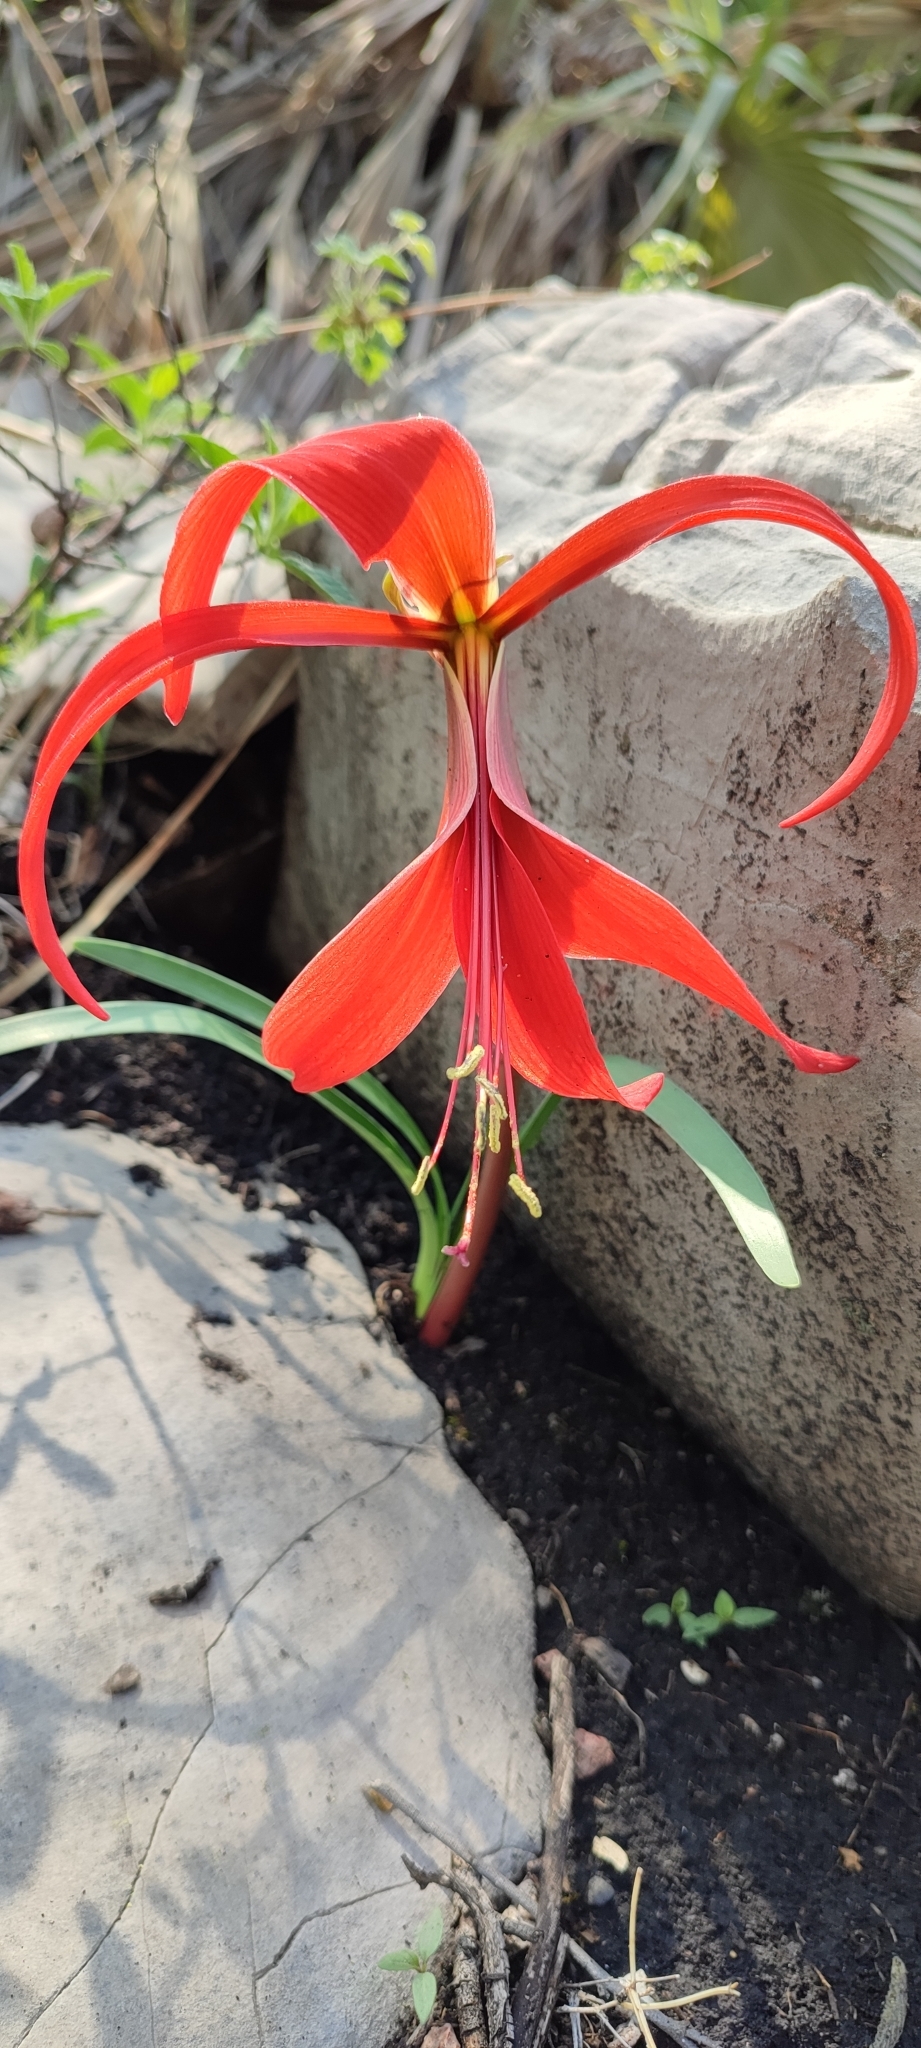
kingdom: Plantae
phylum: Tracheophyta
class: Liliopsida
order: Asparagales
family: Amaryllidaceae
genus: Sprekelia
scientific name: Sprekelia formosissima
